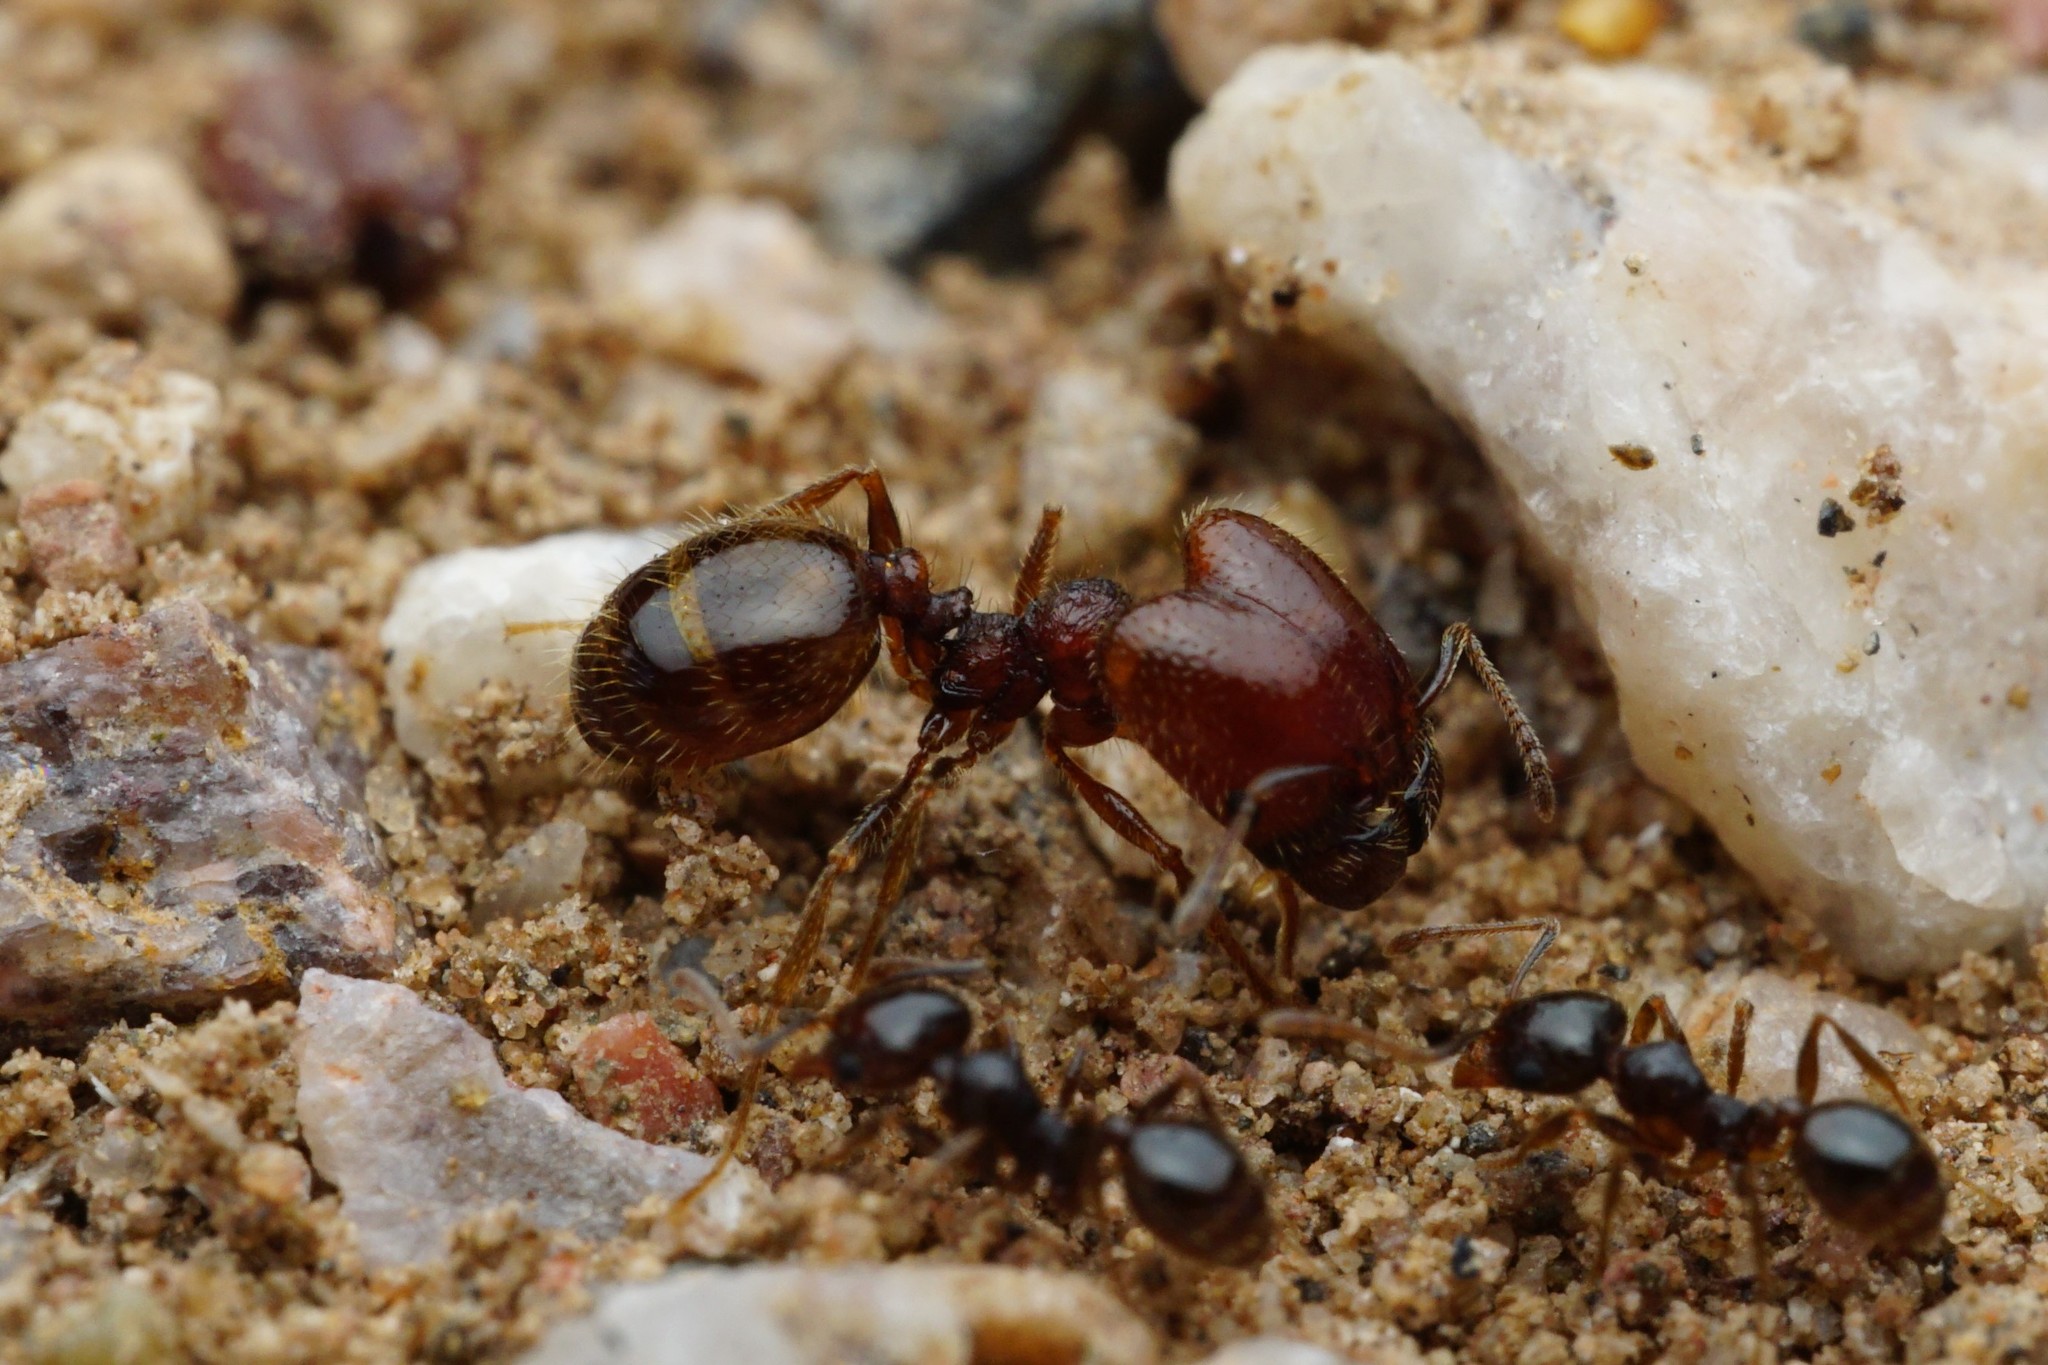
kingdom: Animalia
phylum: Arthropoda
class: Insecta
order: Hymenoptera
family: Formicidae
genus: Pheidole
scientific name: Pheidole xerophila
